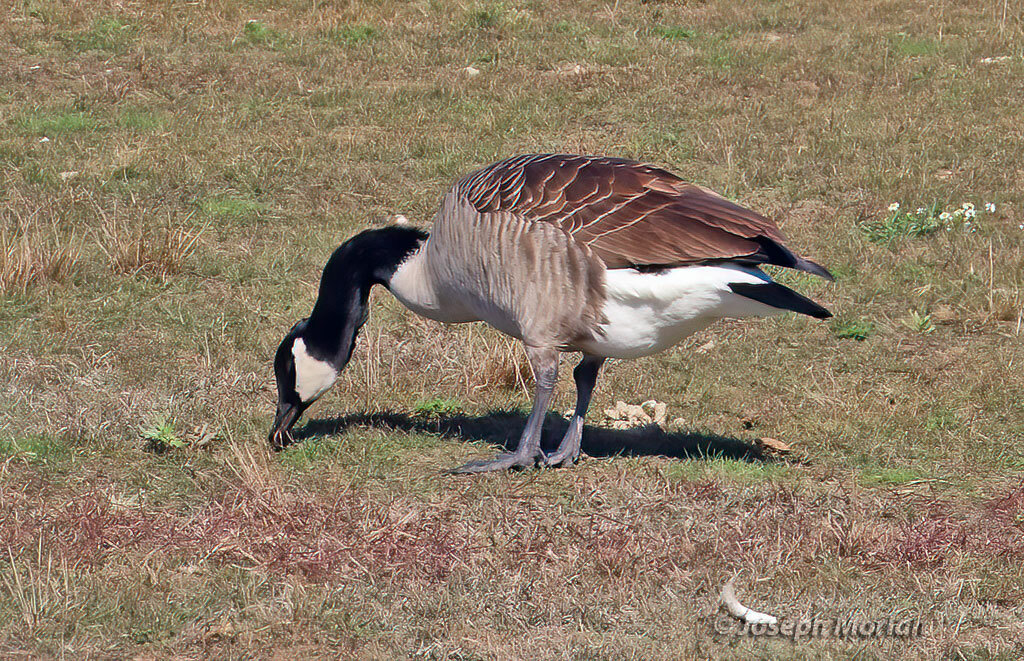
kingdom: Animalia
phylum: Chordata
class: Aves
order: Anseriformes
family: Anatidae
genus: Branta
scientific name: Branta canadensis
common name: Canada goose
